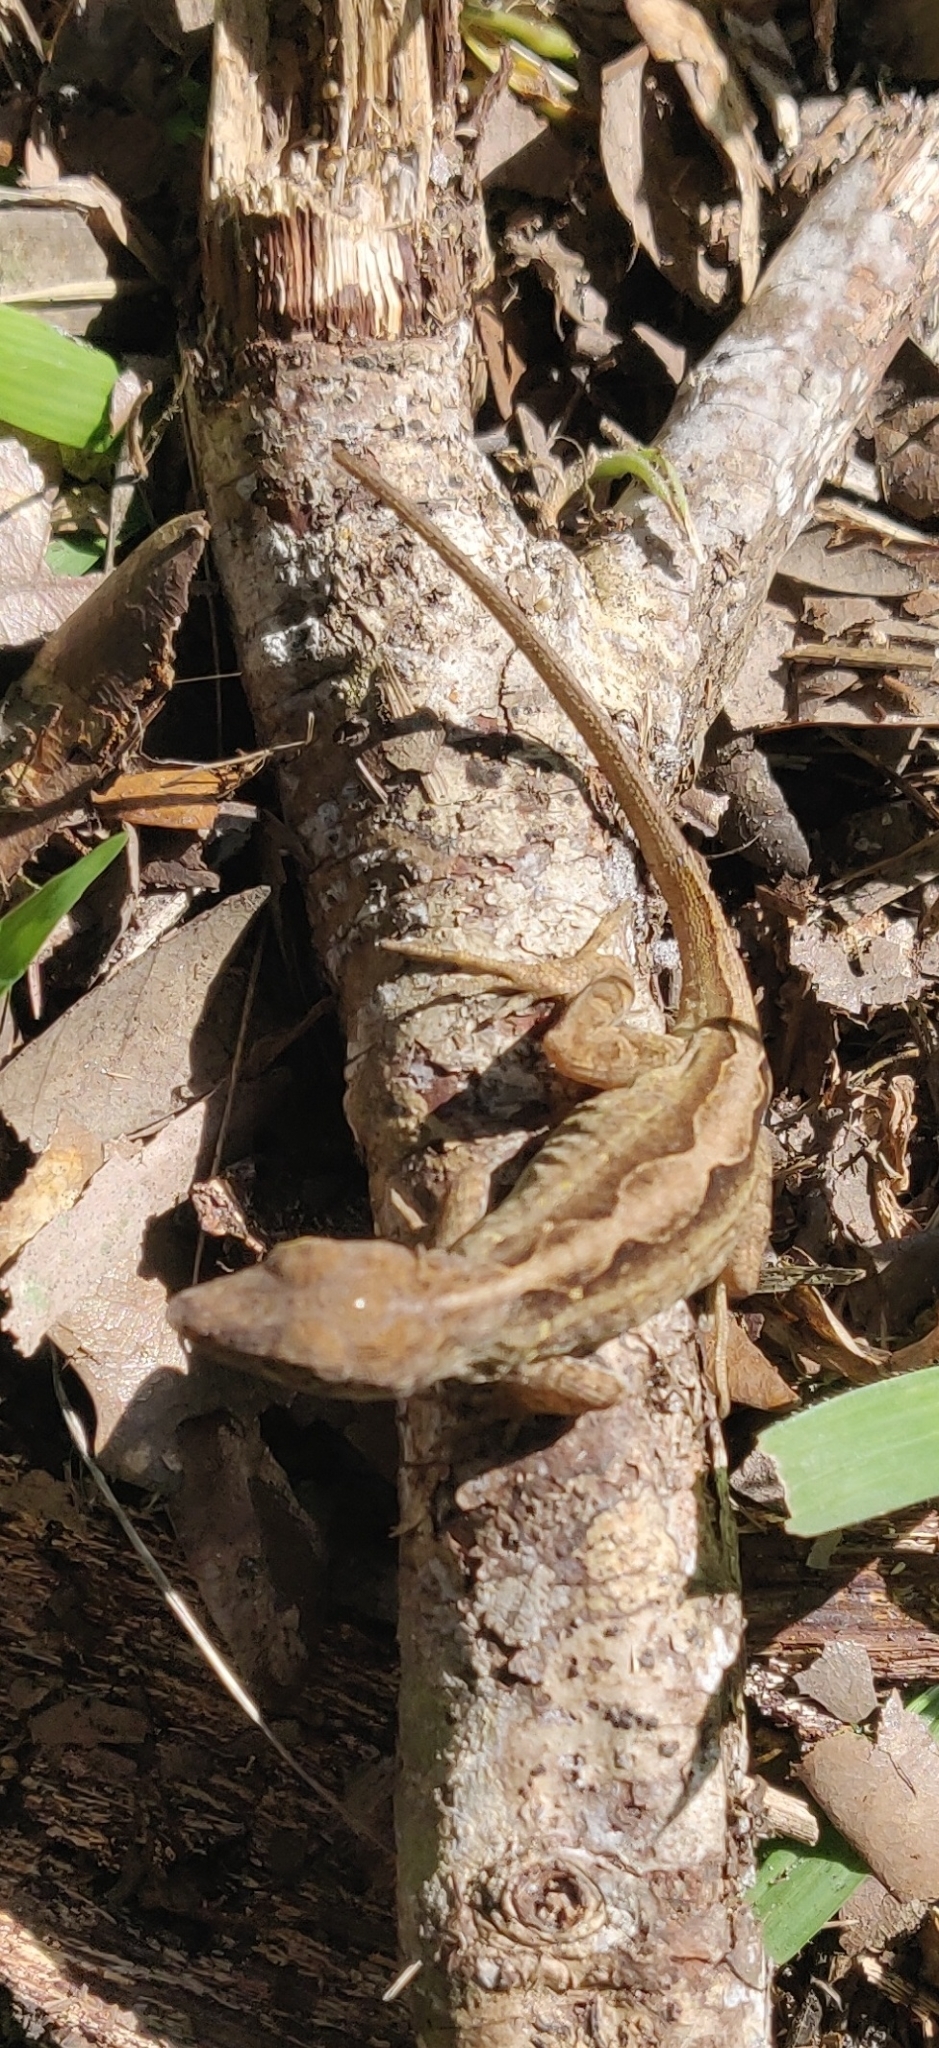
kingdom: Animalia
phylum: Chordata
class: Squamata
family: Dactyloidae
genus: Anolis
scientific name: Anolis sagrei
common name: Brown anole
